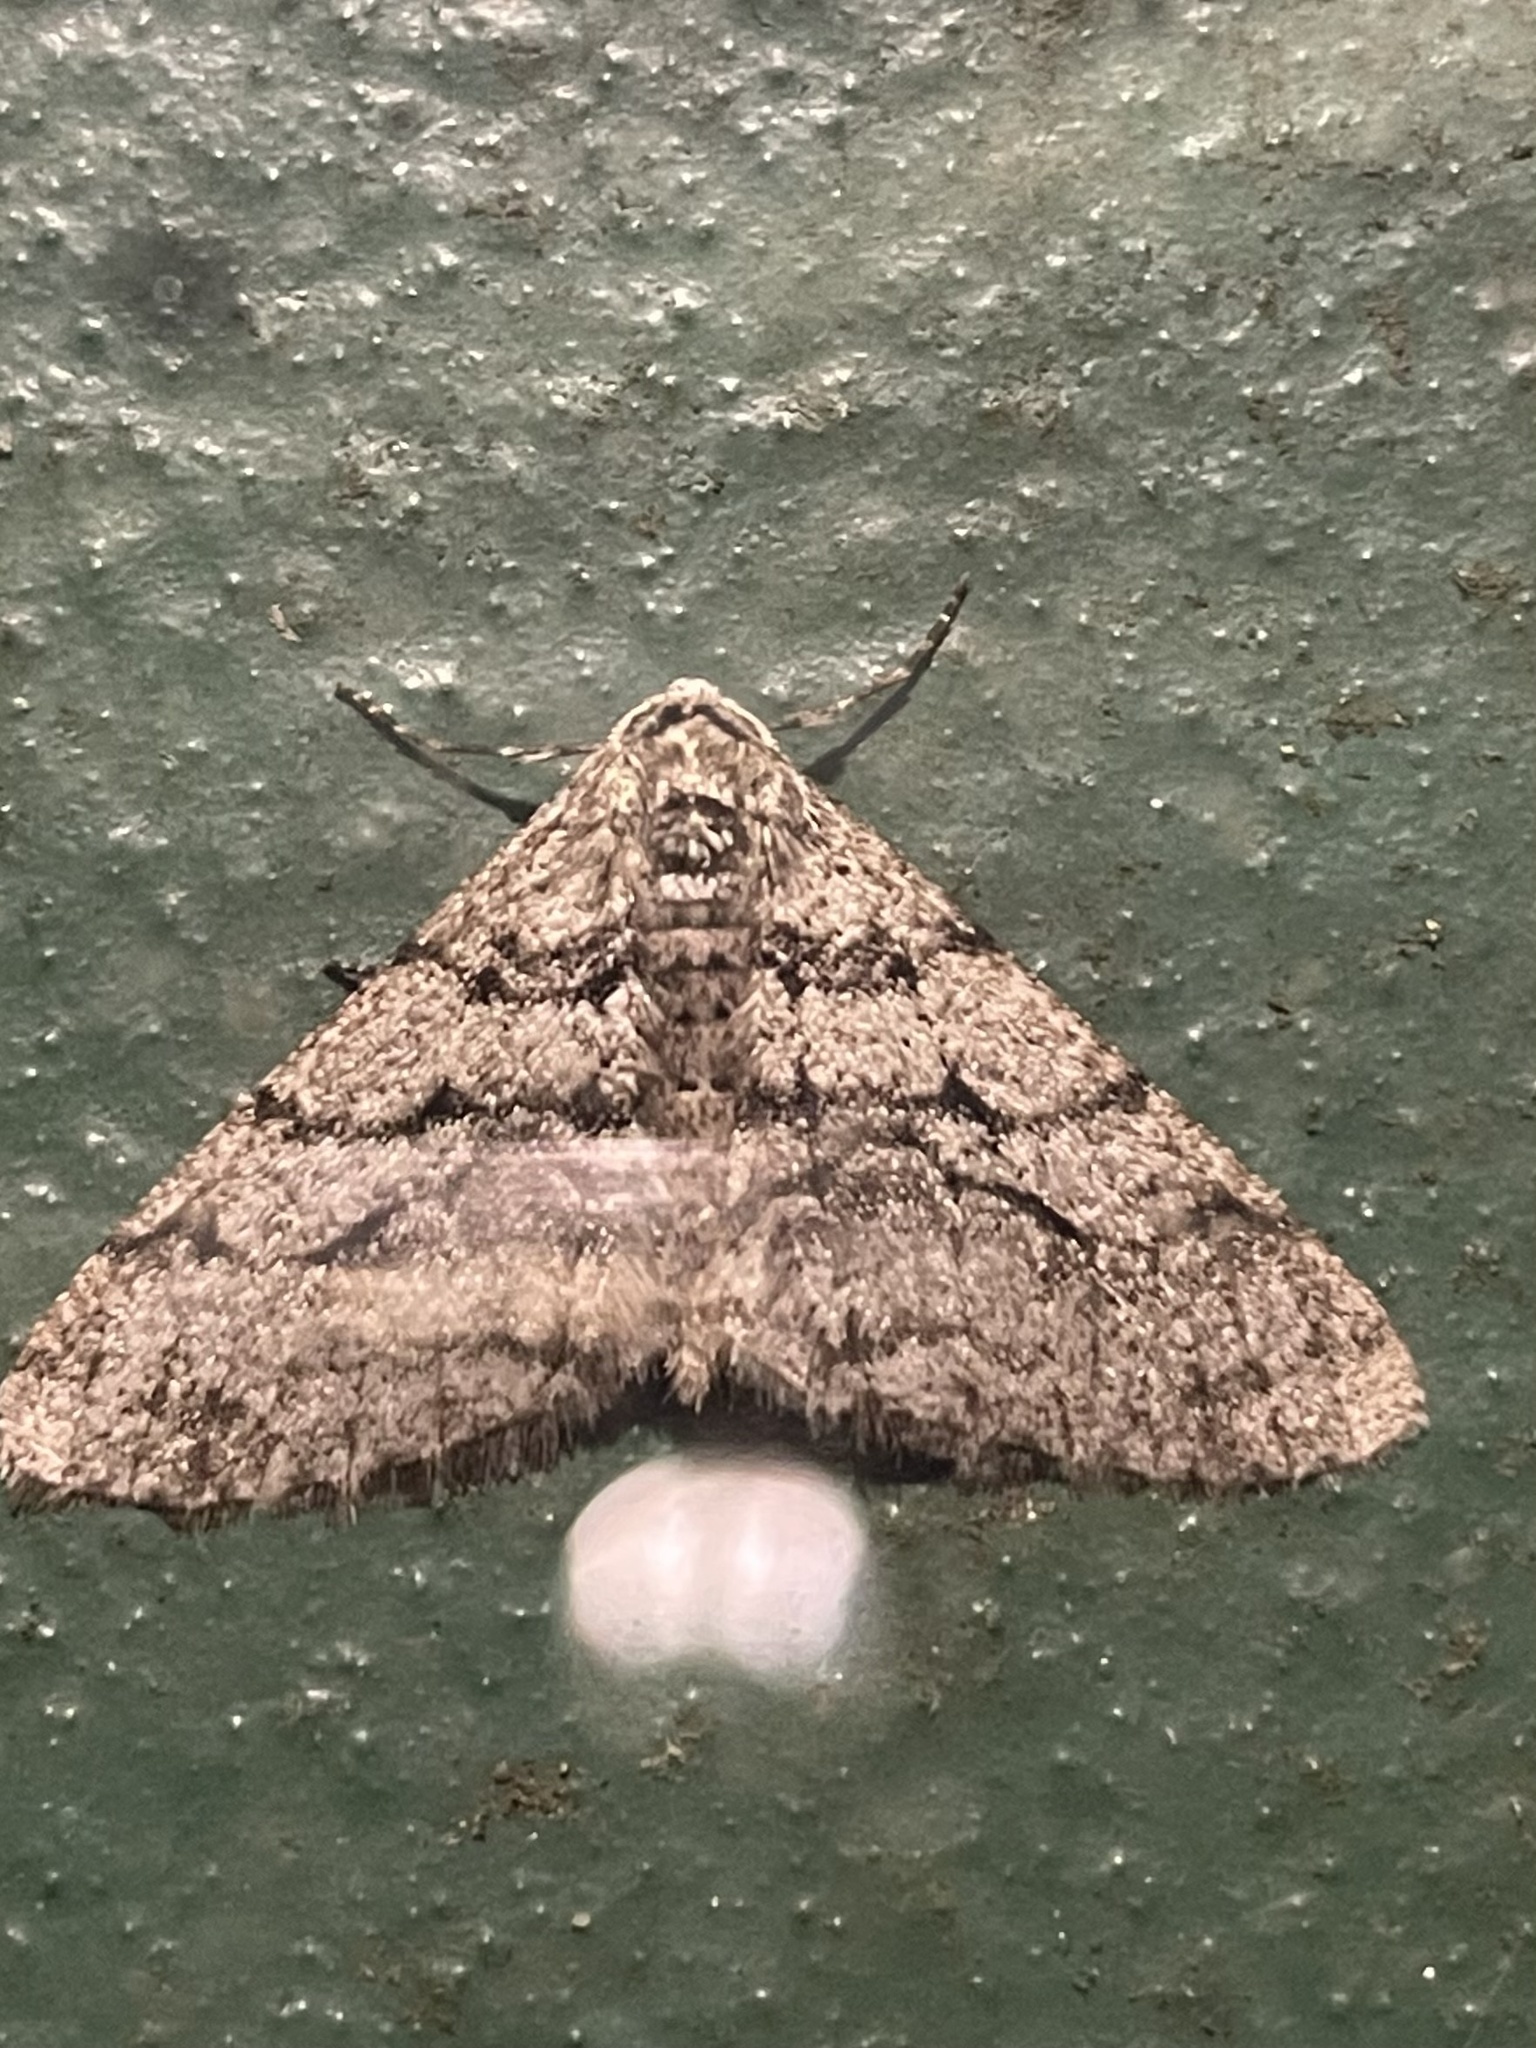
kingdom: Animalia
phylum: Arthropoda
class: Insecta
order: Lepidoptera
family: Geometridae
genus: Phigalia
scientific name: Phigalia titea
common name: Spiny looper
